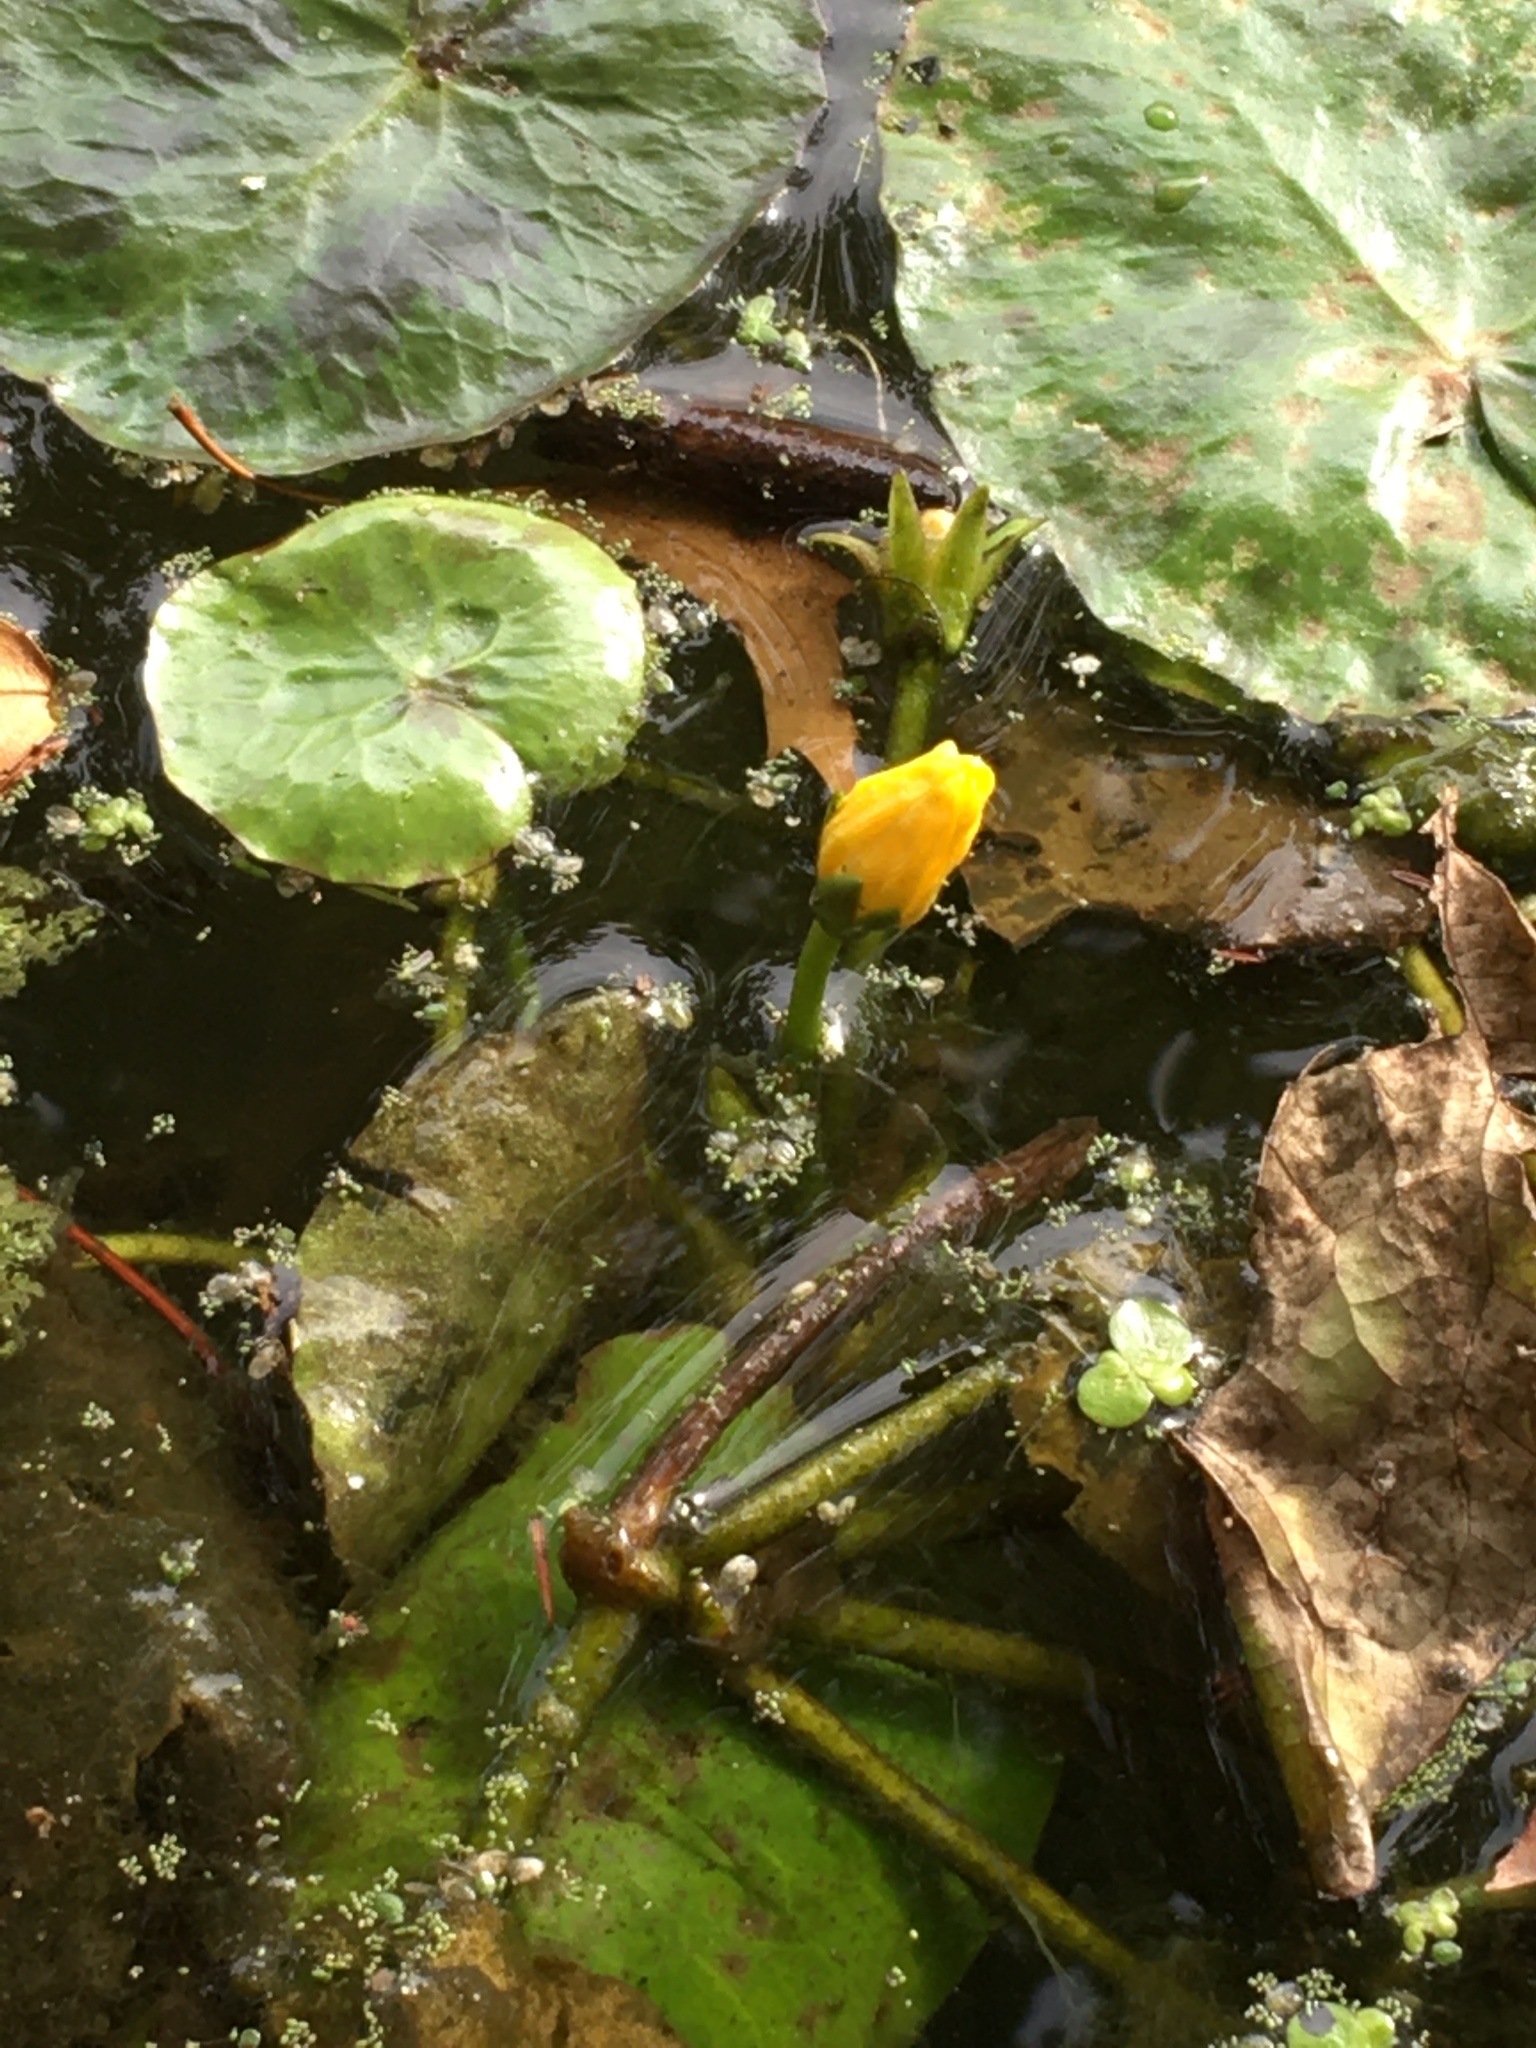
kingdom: Plantae
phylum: Tracheophyta
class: Magnoliopsida
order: Asterales
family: Menyanthaceae
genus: Nymphoides
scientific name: Nymphoides peltata
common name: Fringed water-lily
